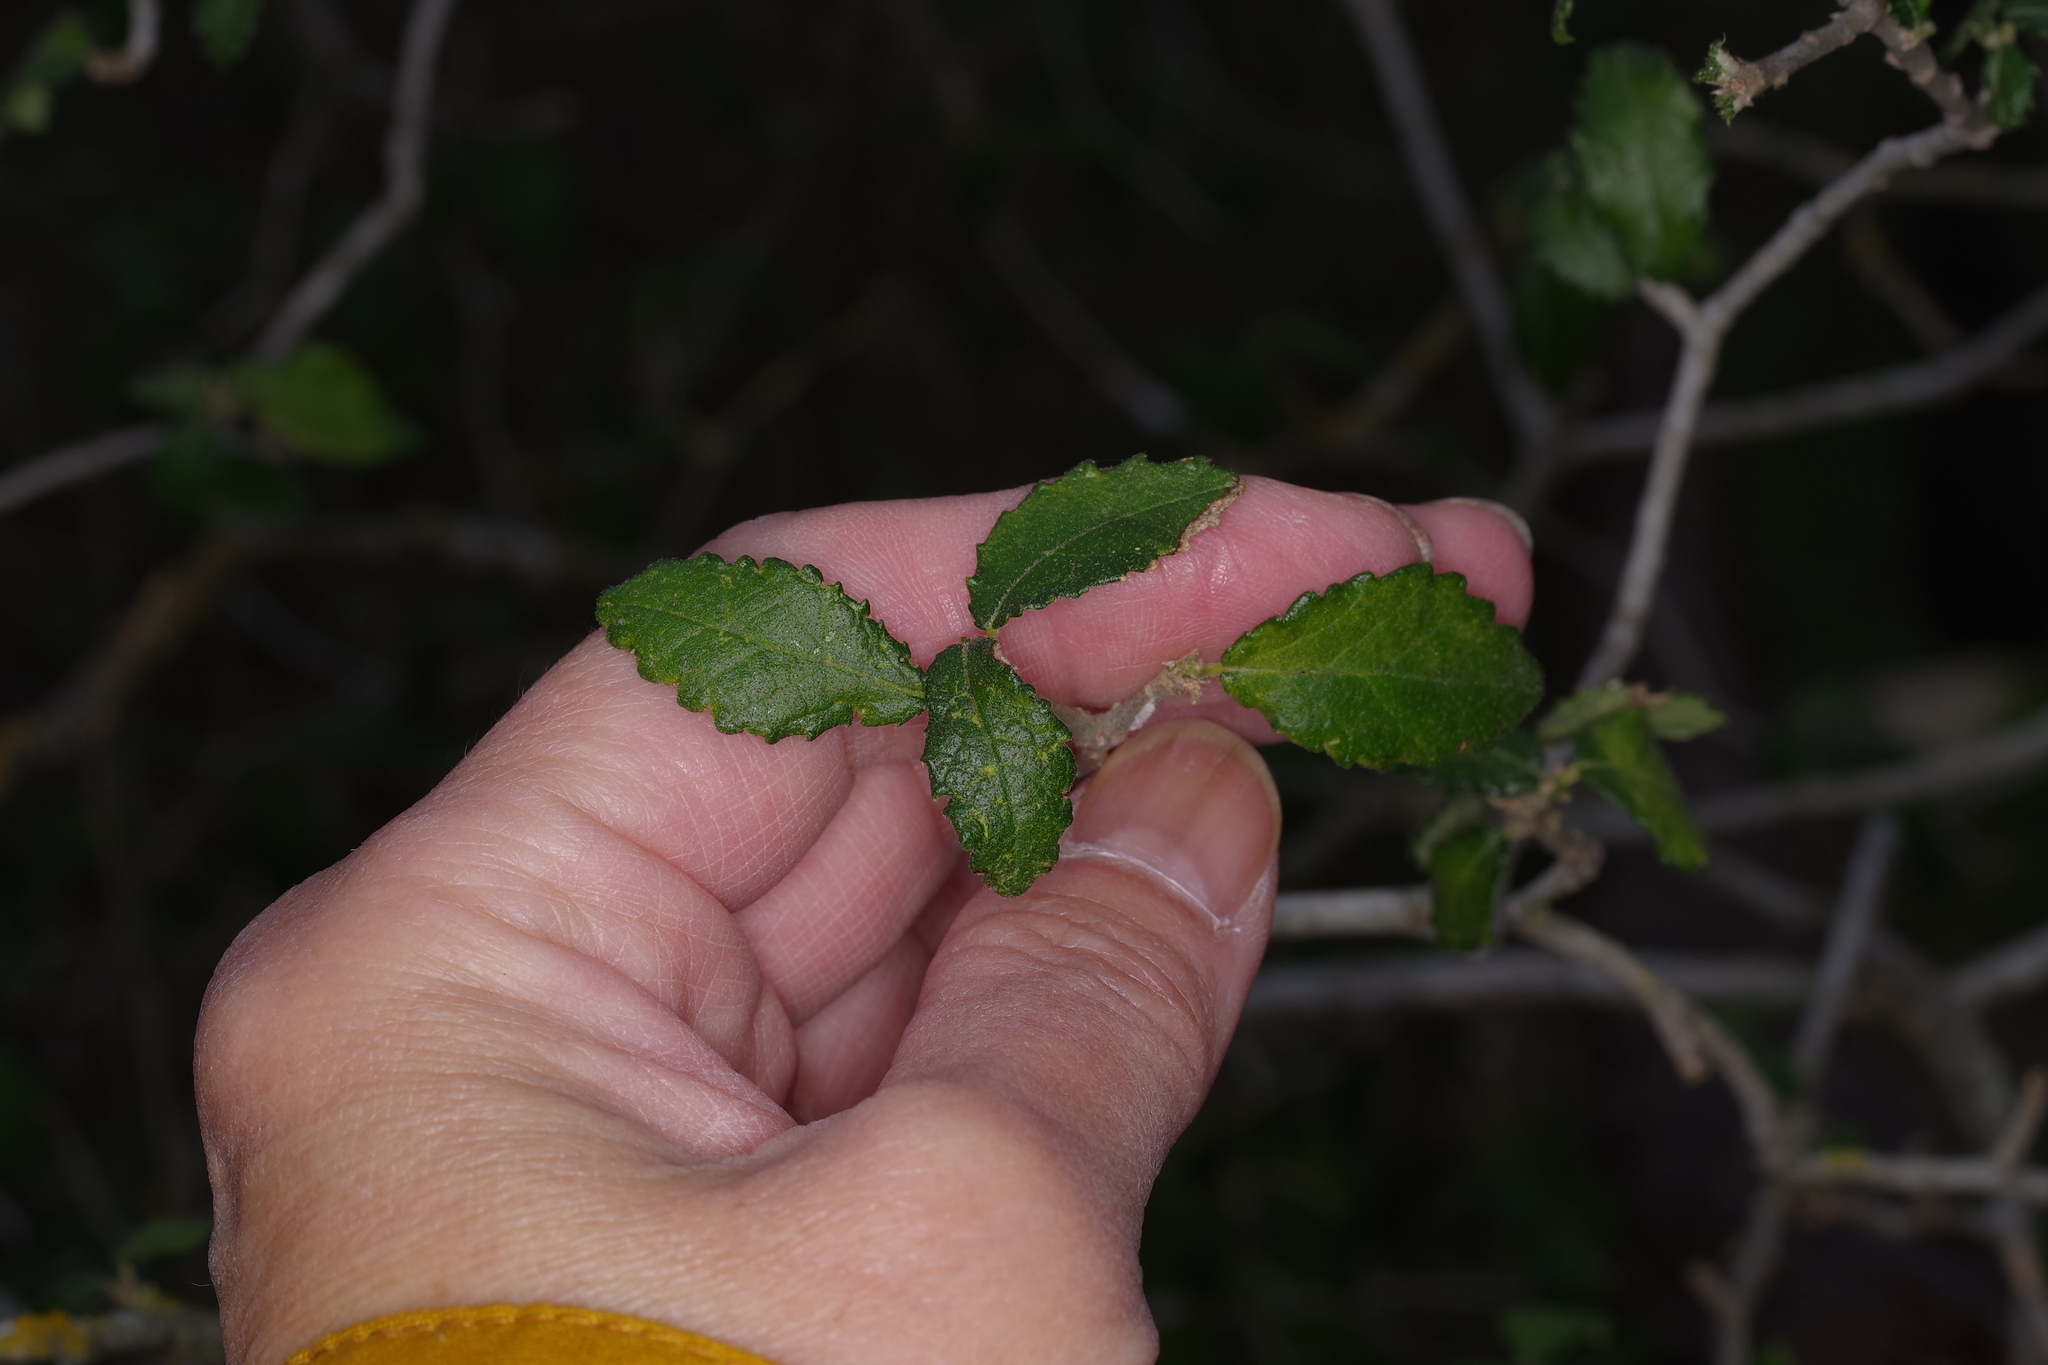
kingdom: Plantae
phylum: Tracheophyta
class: Magnoliopsida
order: Malpighiales
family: Euphorbiaceae
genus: Bernardia
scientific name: Bernardia myricifolia
